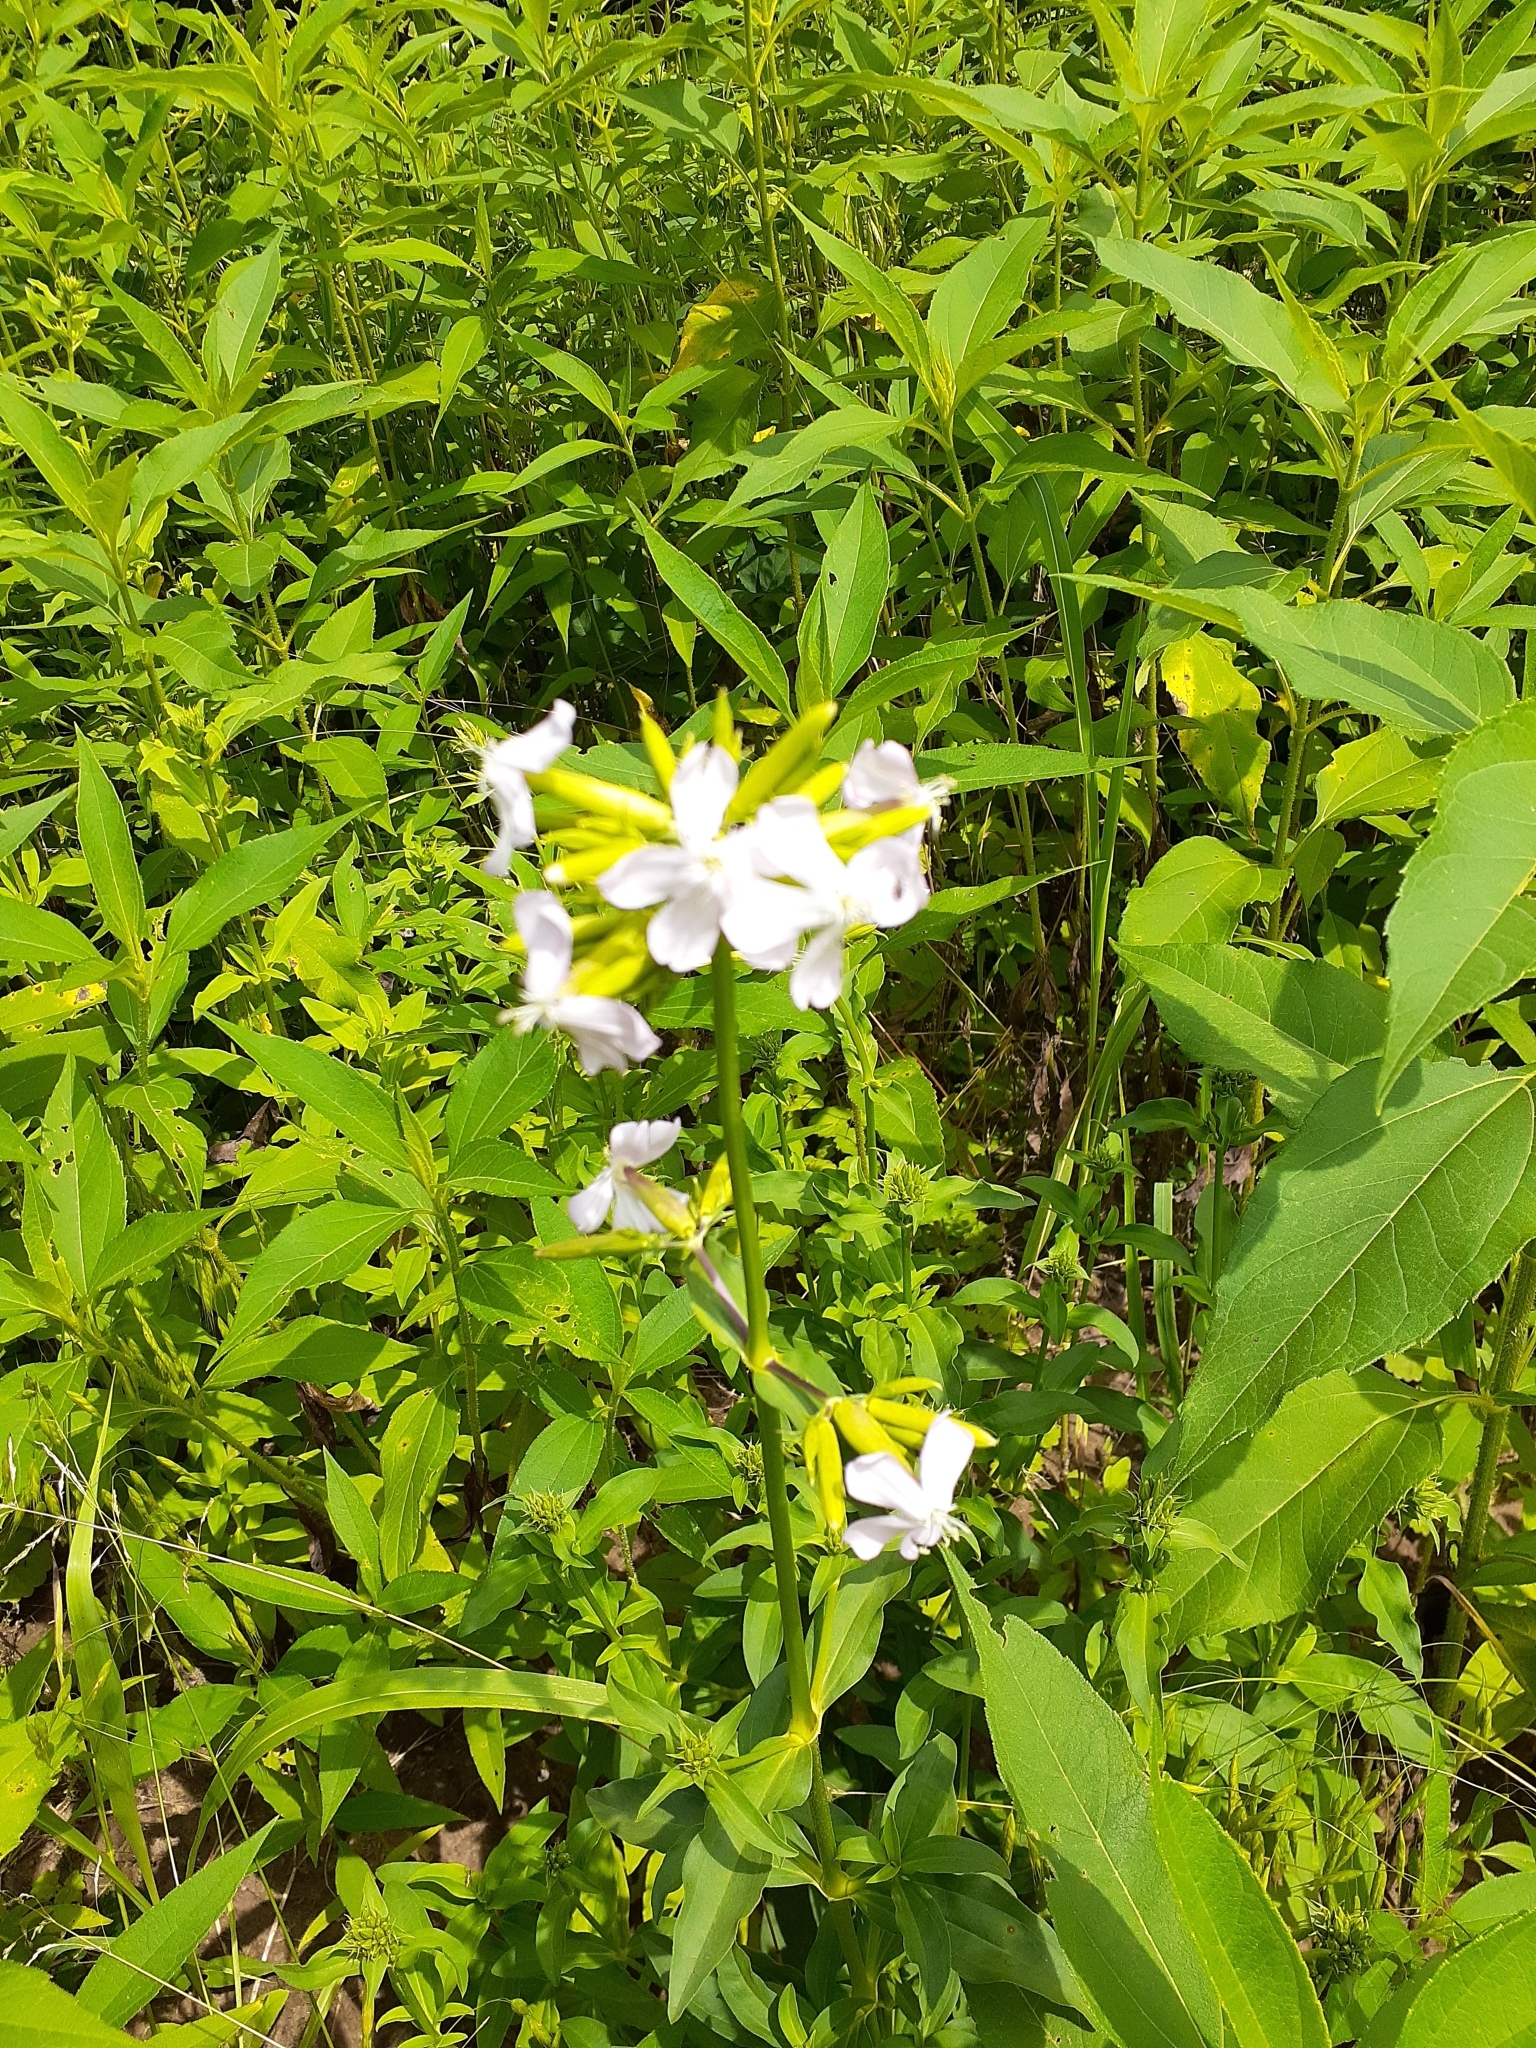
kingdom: Plantae
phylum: Tracheophyta
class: Magnoliopsida
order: Caryophyllales
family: Caryophyllaceae
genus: Saponaria
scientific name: Saponaria officinalis
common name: Soapwort
